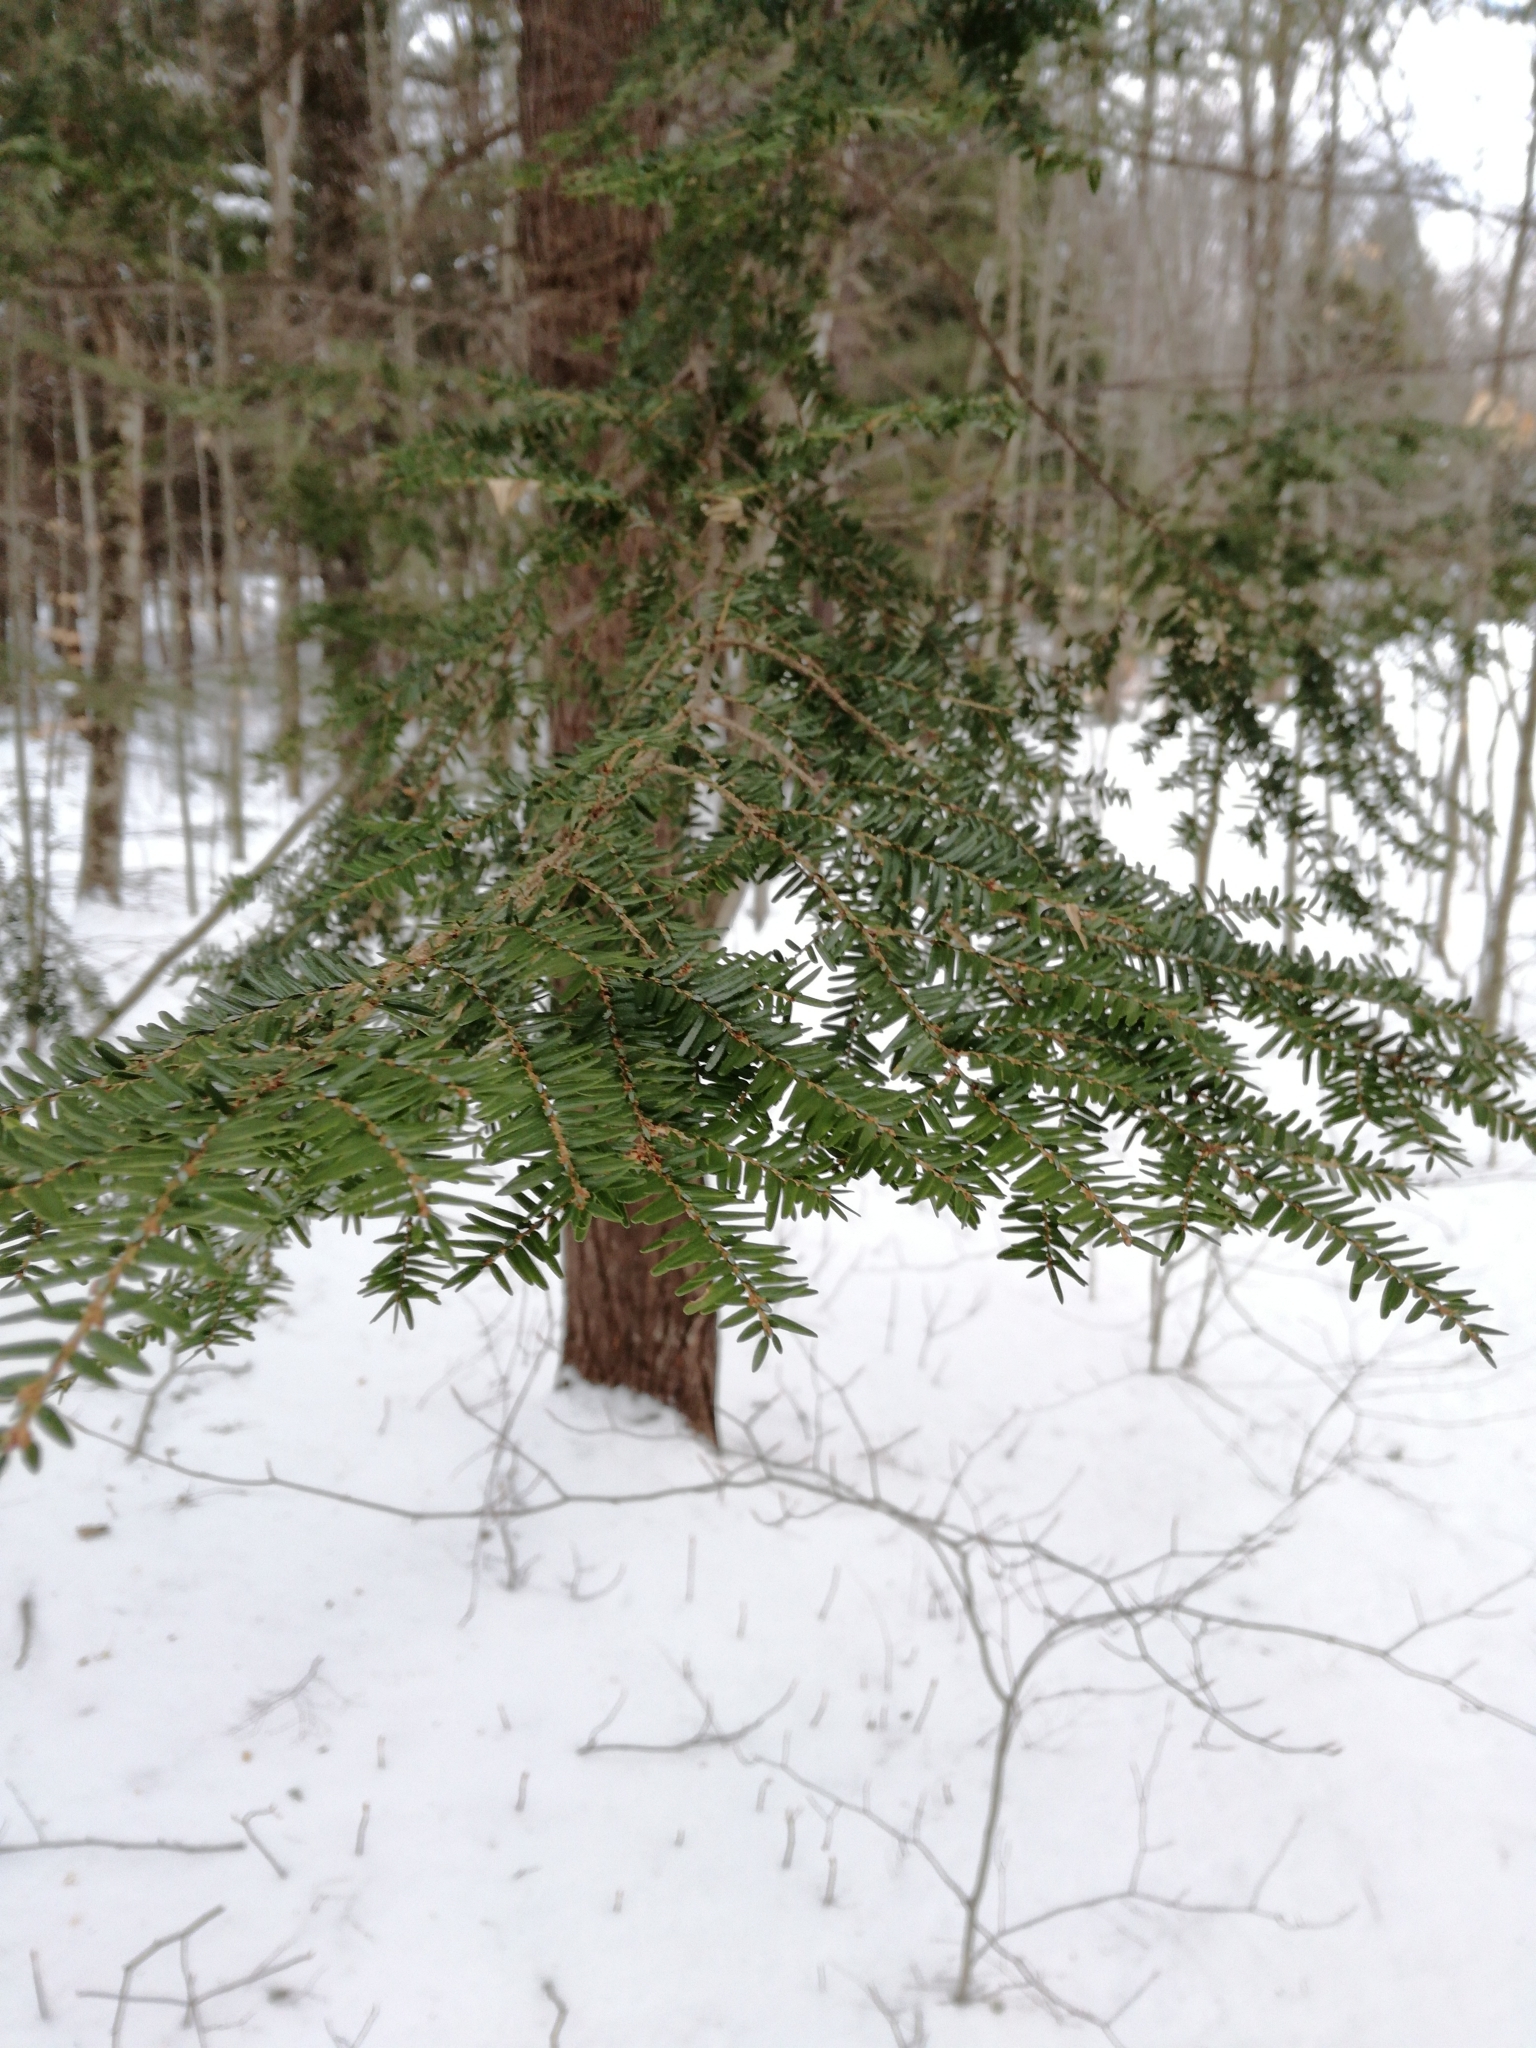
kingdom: Plantae
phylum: Tracheophyta
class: Pinopsida
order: Pinales
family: Pinaceae
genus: Tsuga
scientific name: Tsuga canadensis
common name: Eastern hemlock
